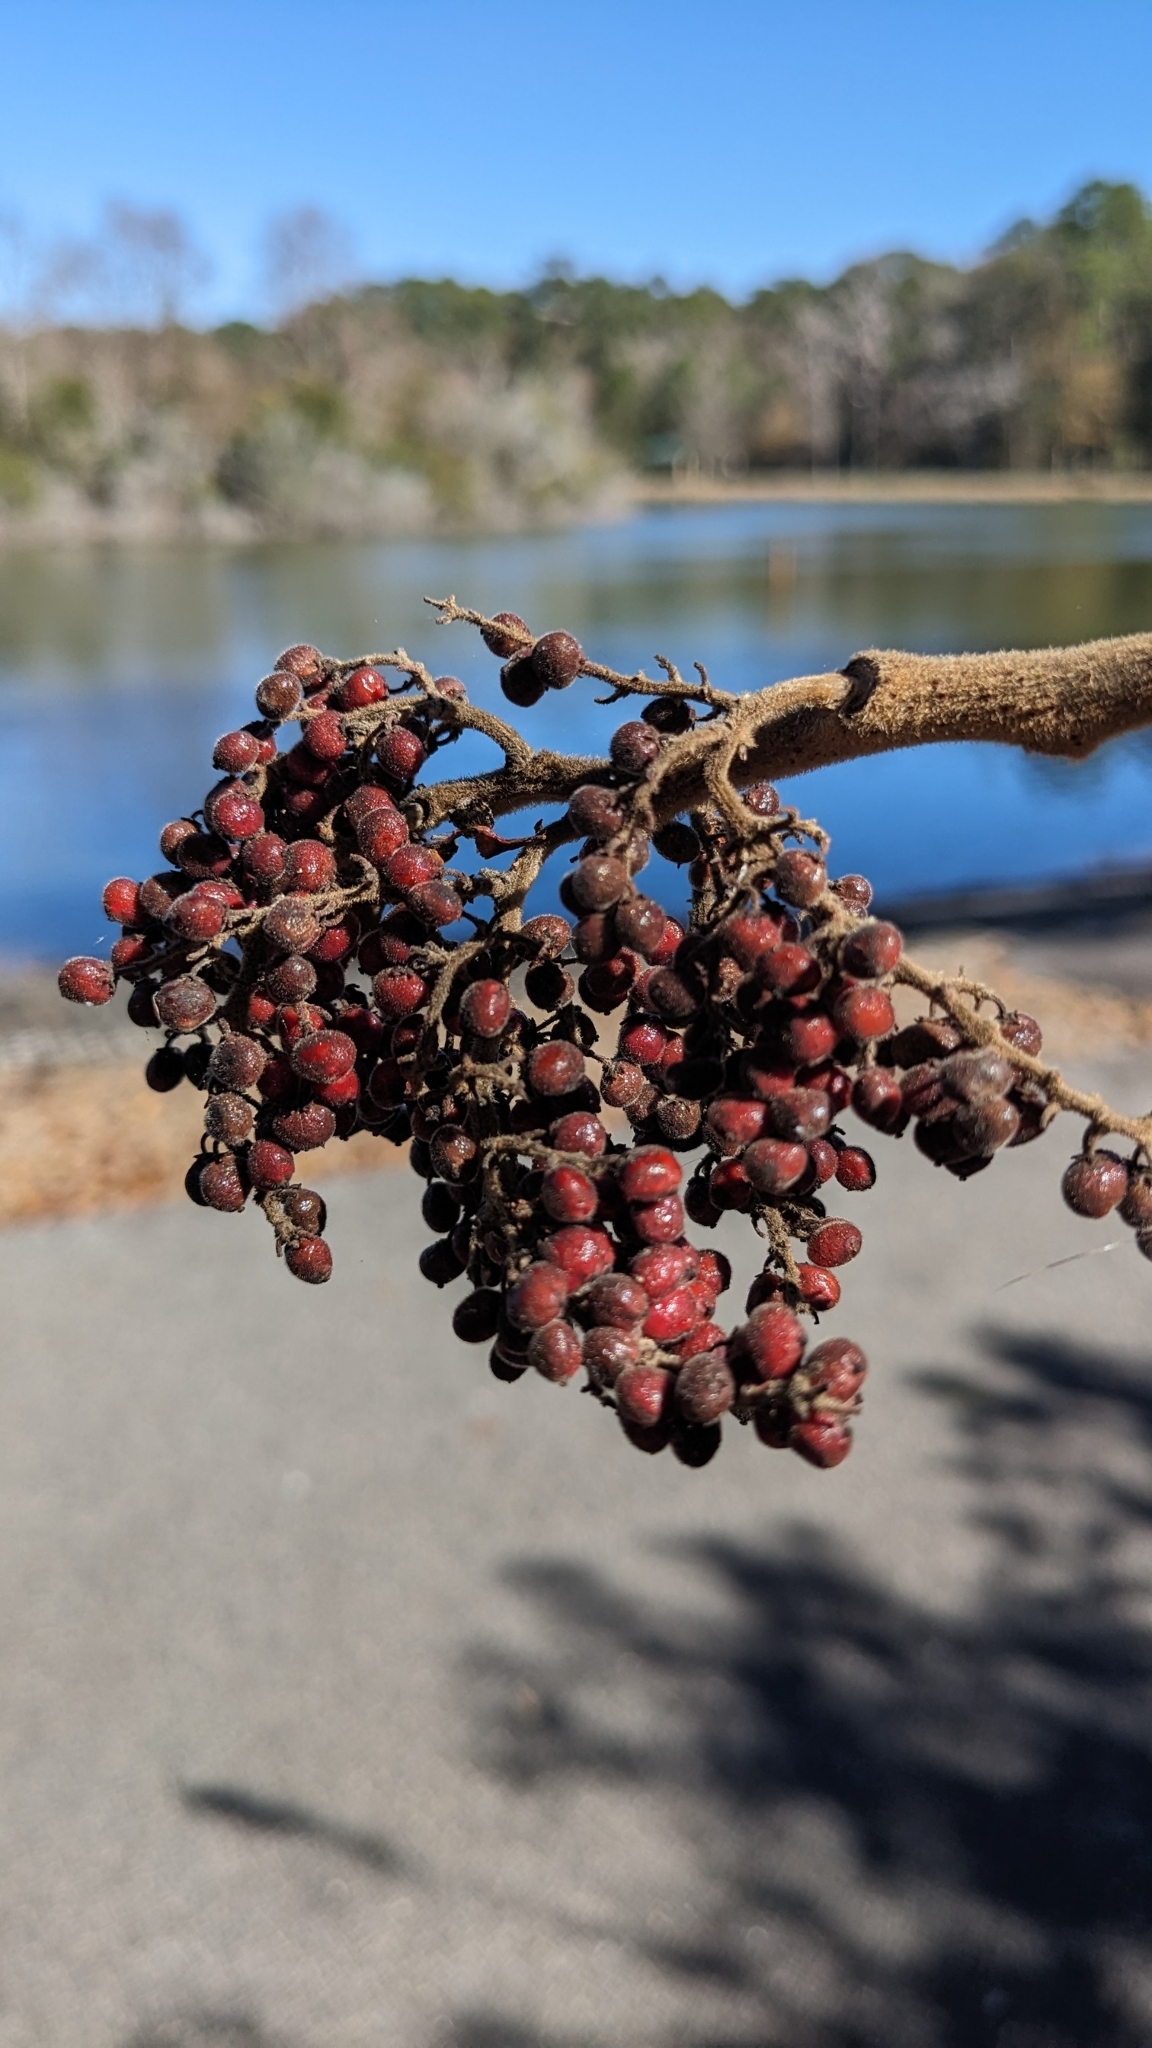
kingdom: Plantae
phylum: Tracheophyta
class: Magnoliopsida
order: Sapindales
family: Anacardiaceae
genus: Rhus
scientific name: Rhus copallina
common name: Shining sumac
